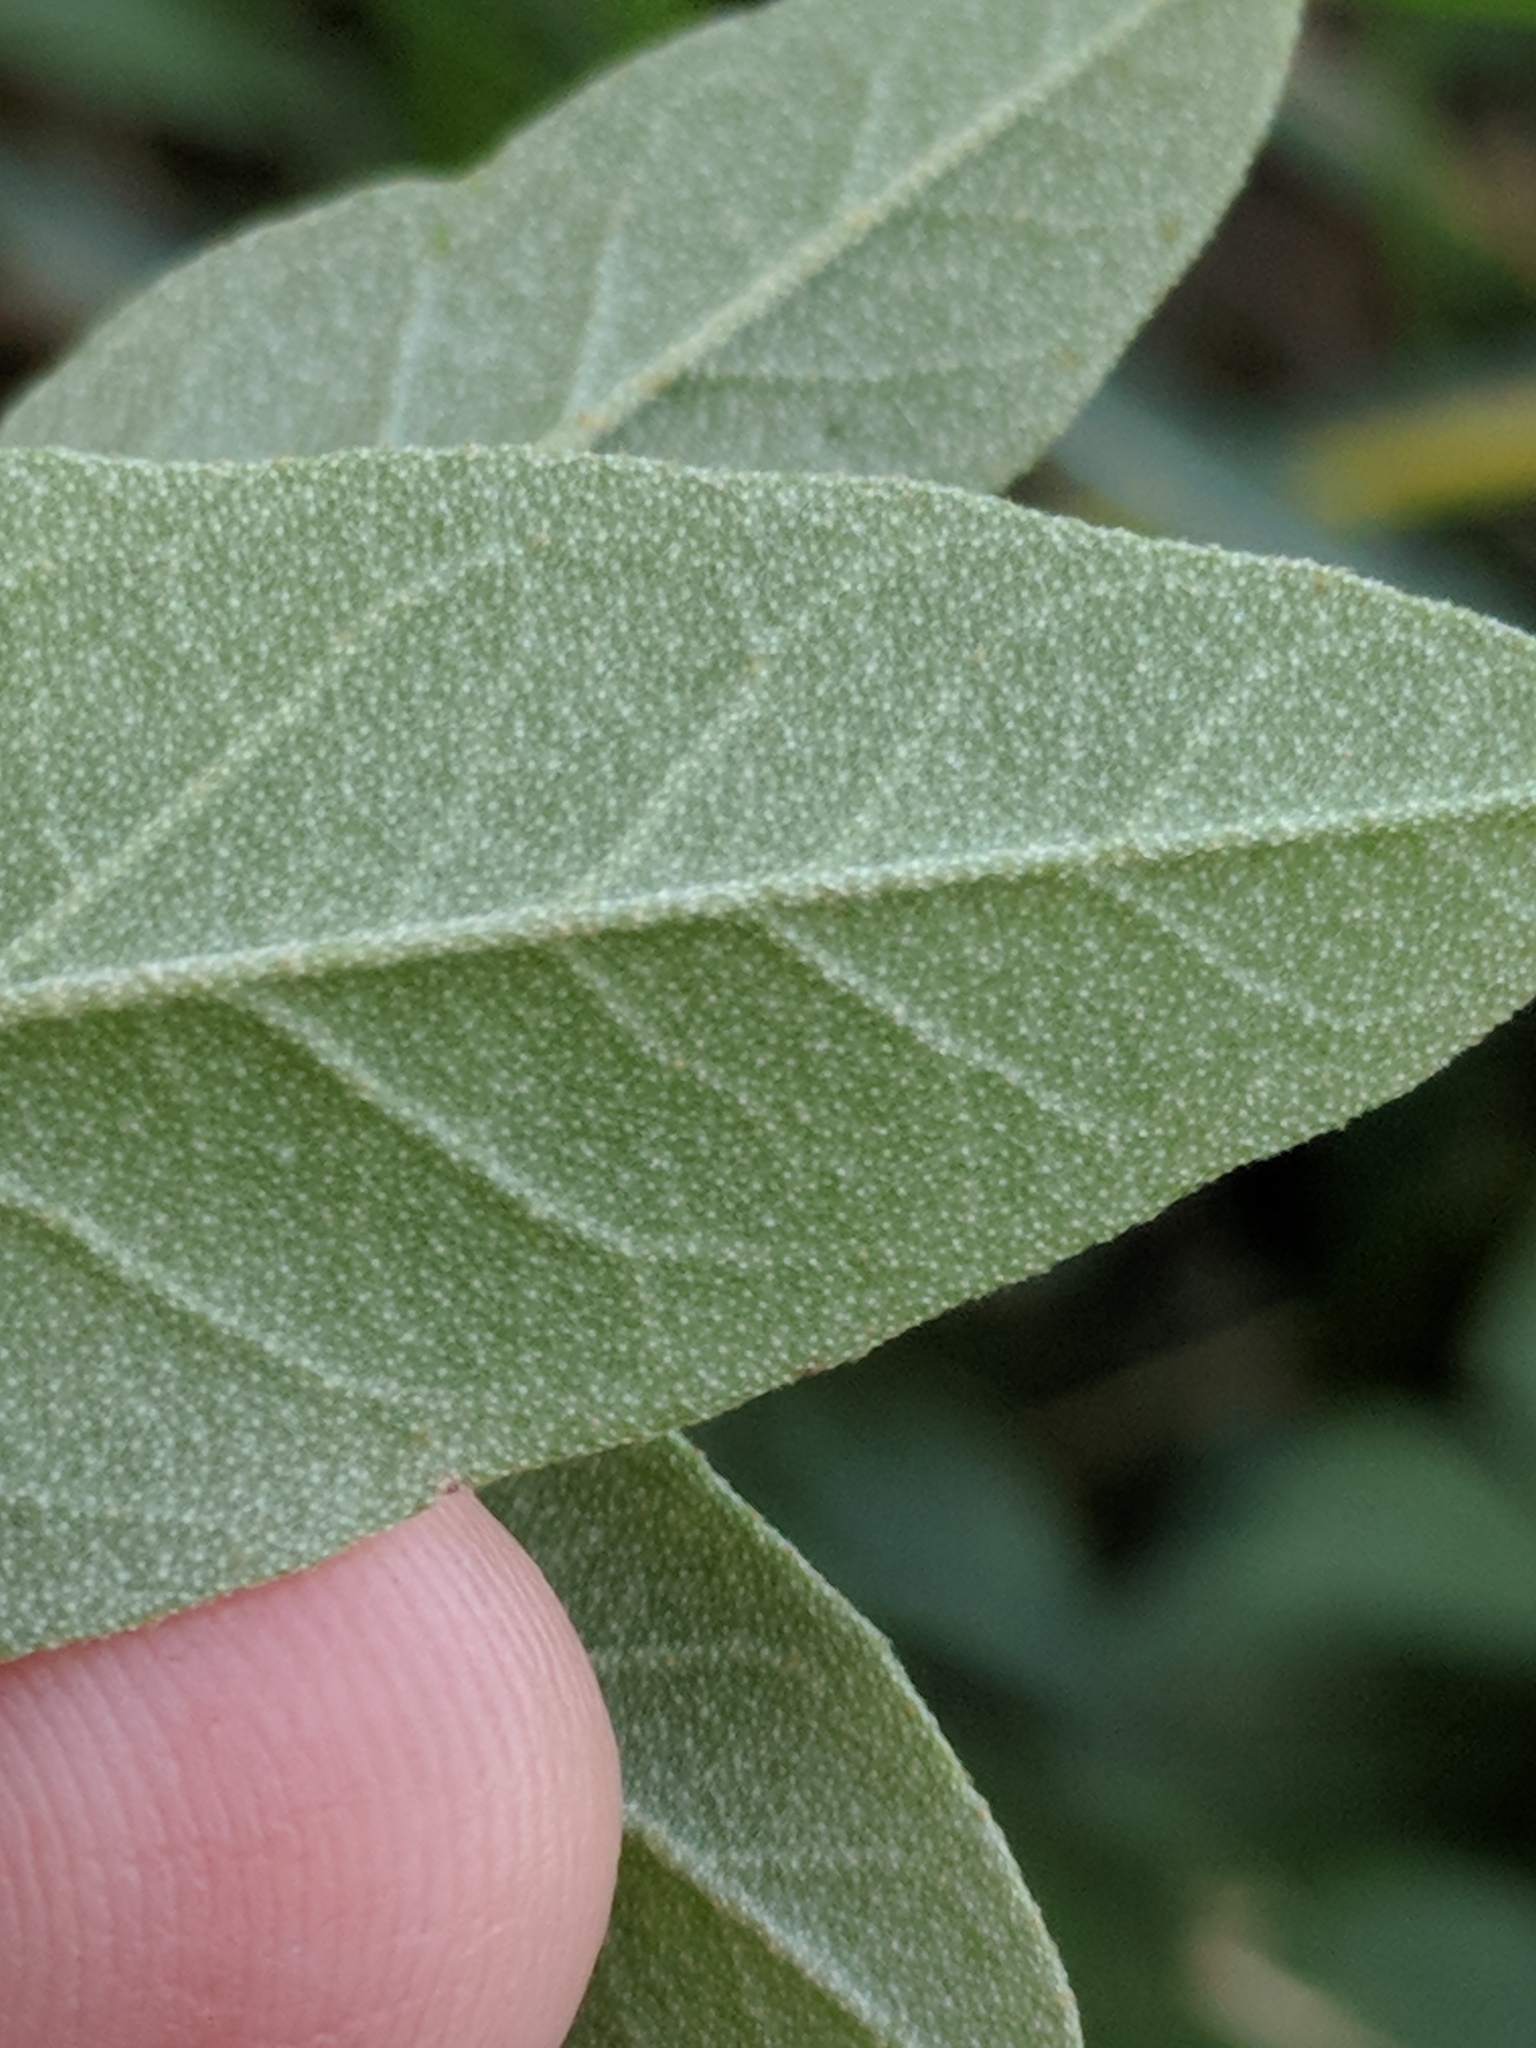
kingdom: Plantae
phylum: Tracheophyta
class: Magnoliopsida
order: Malpighiales
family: Euphorbiaceae
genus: Croton
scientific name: Croton monanthogynus
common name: One-seed croton
